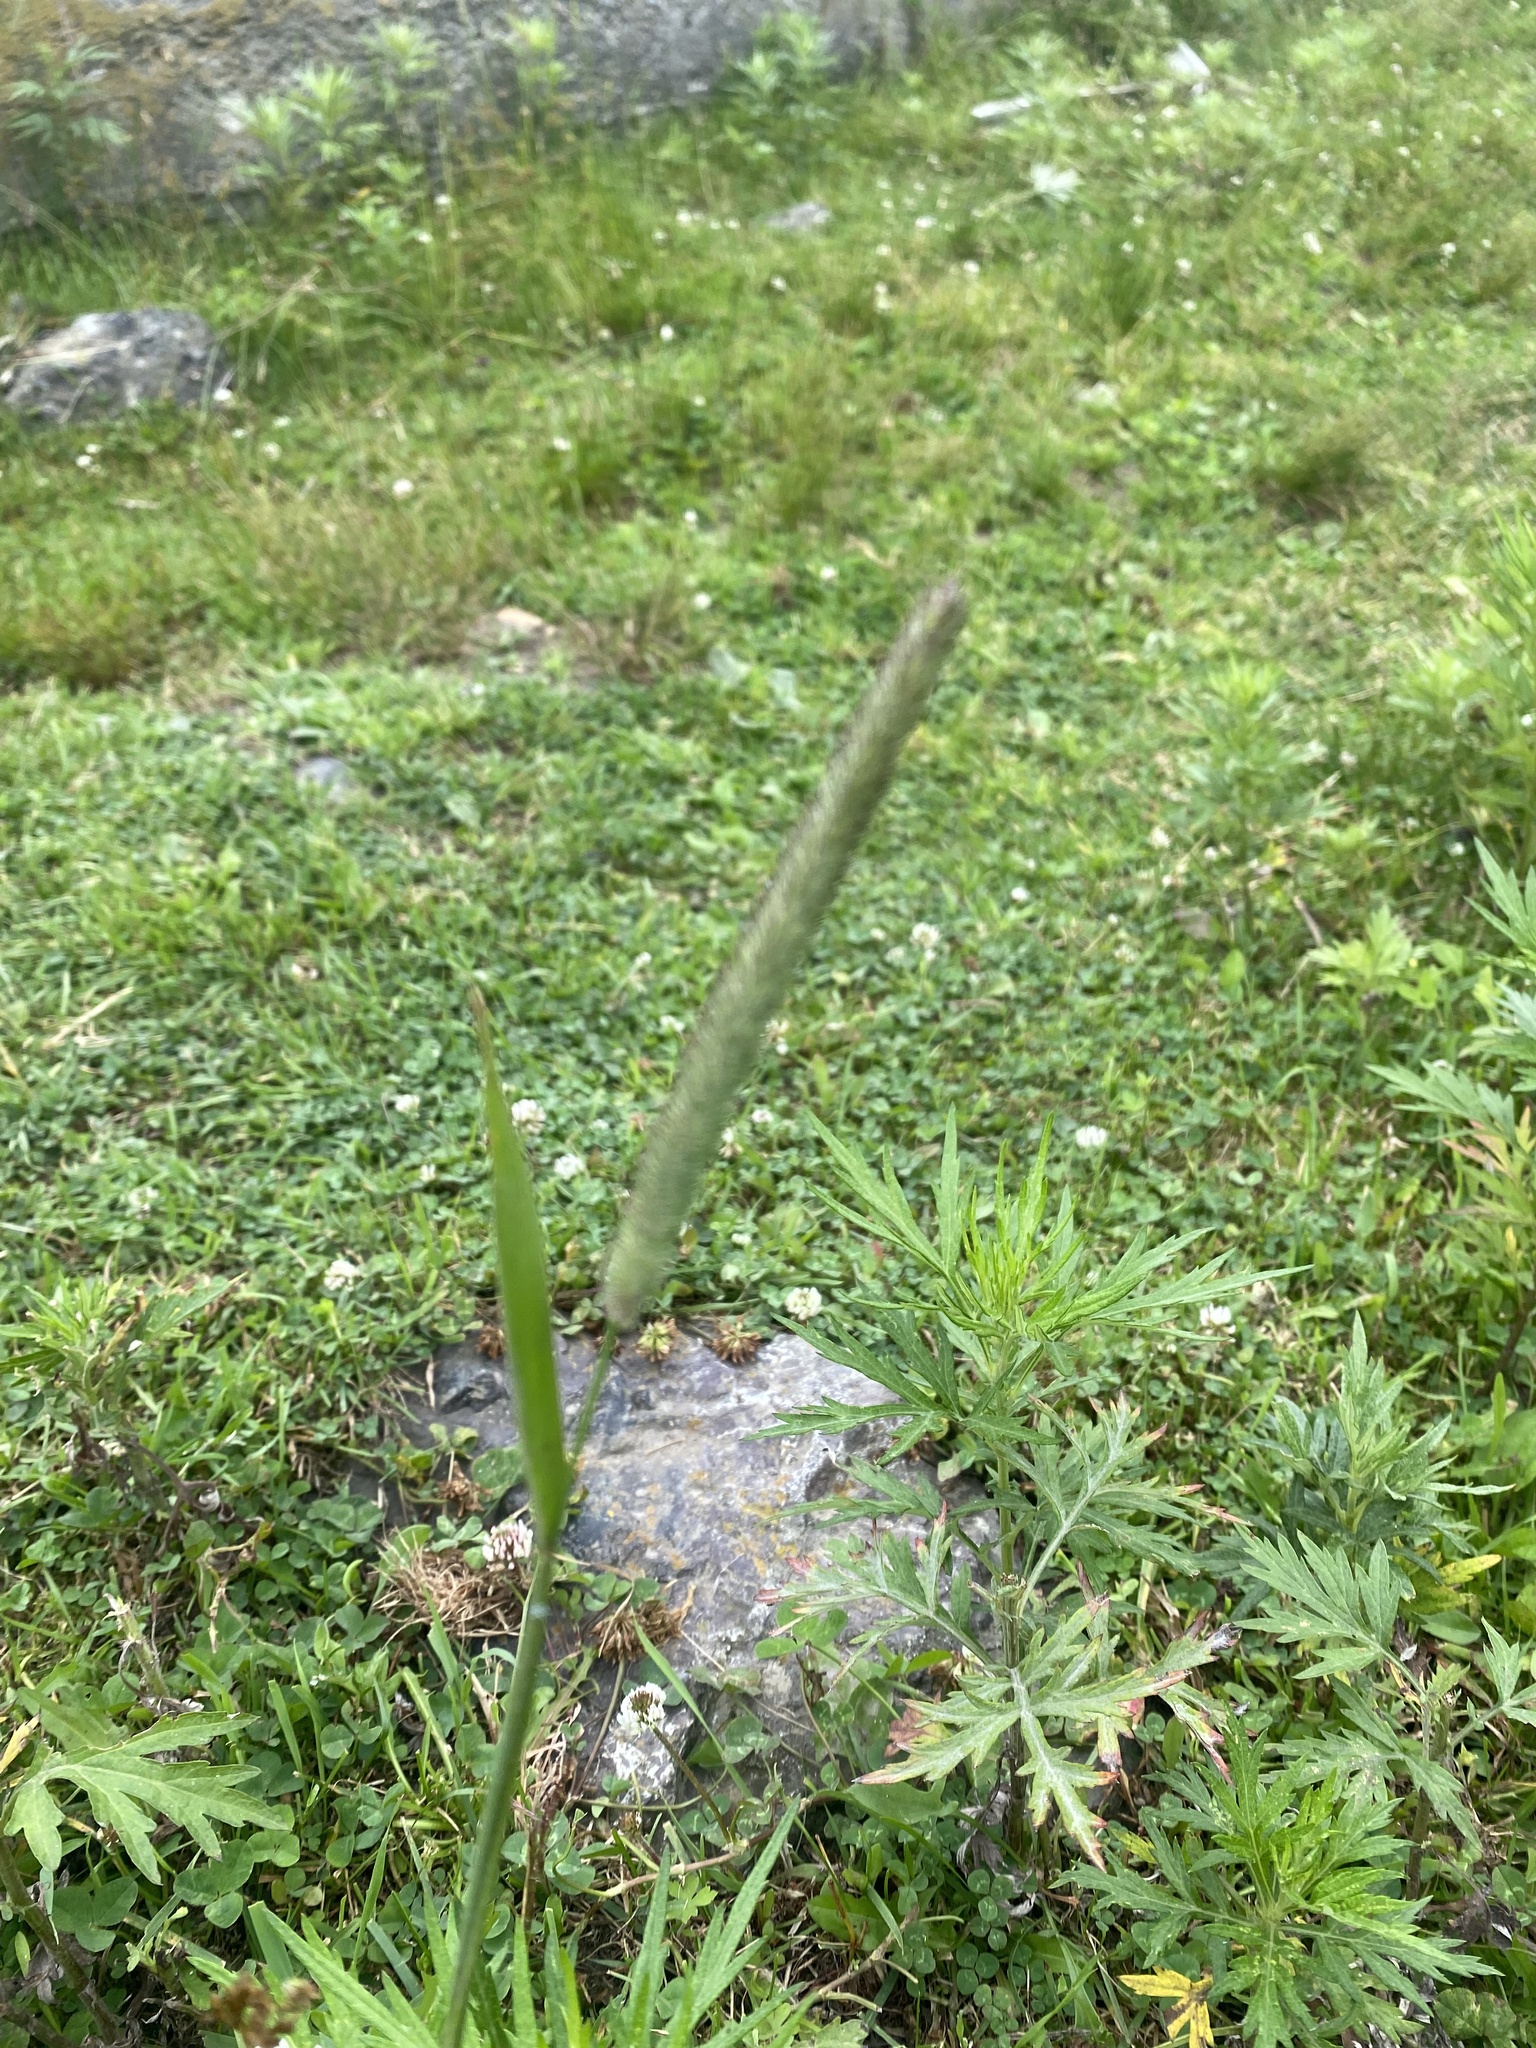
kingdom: Plantae
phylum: Tracheophyta
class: Liliopsida
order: Poales
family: Poaceae
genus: Phleum
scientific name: Phleum pratense
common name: Timothy grass
